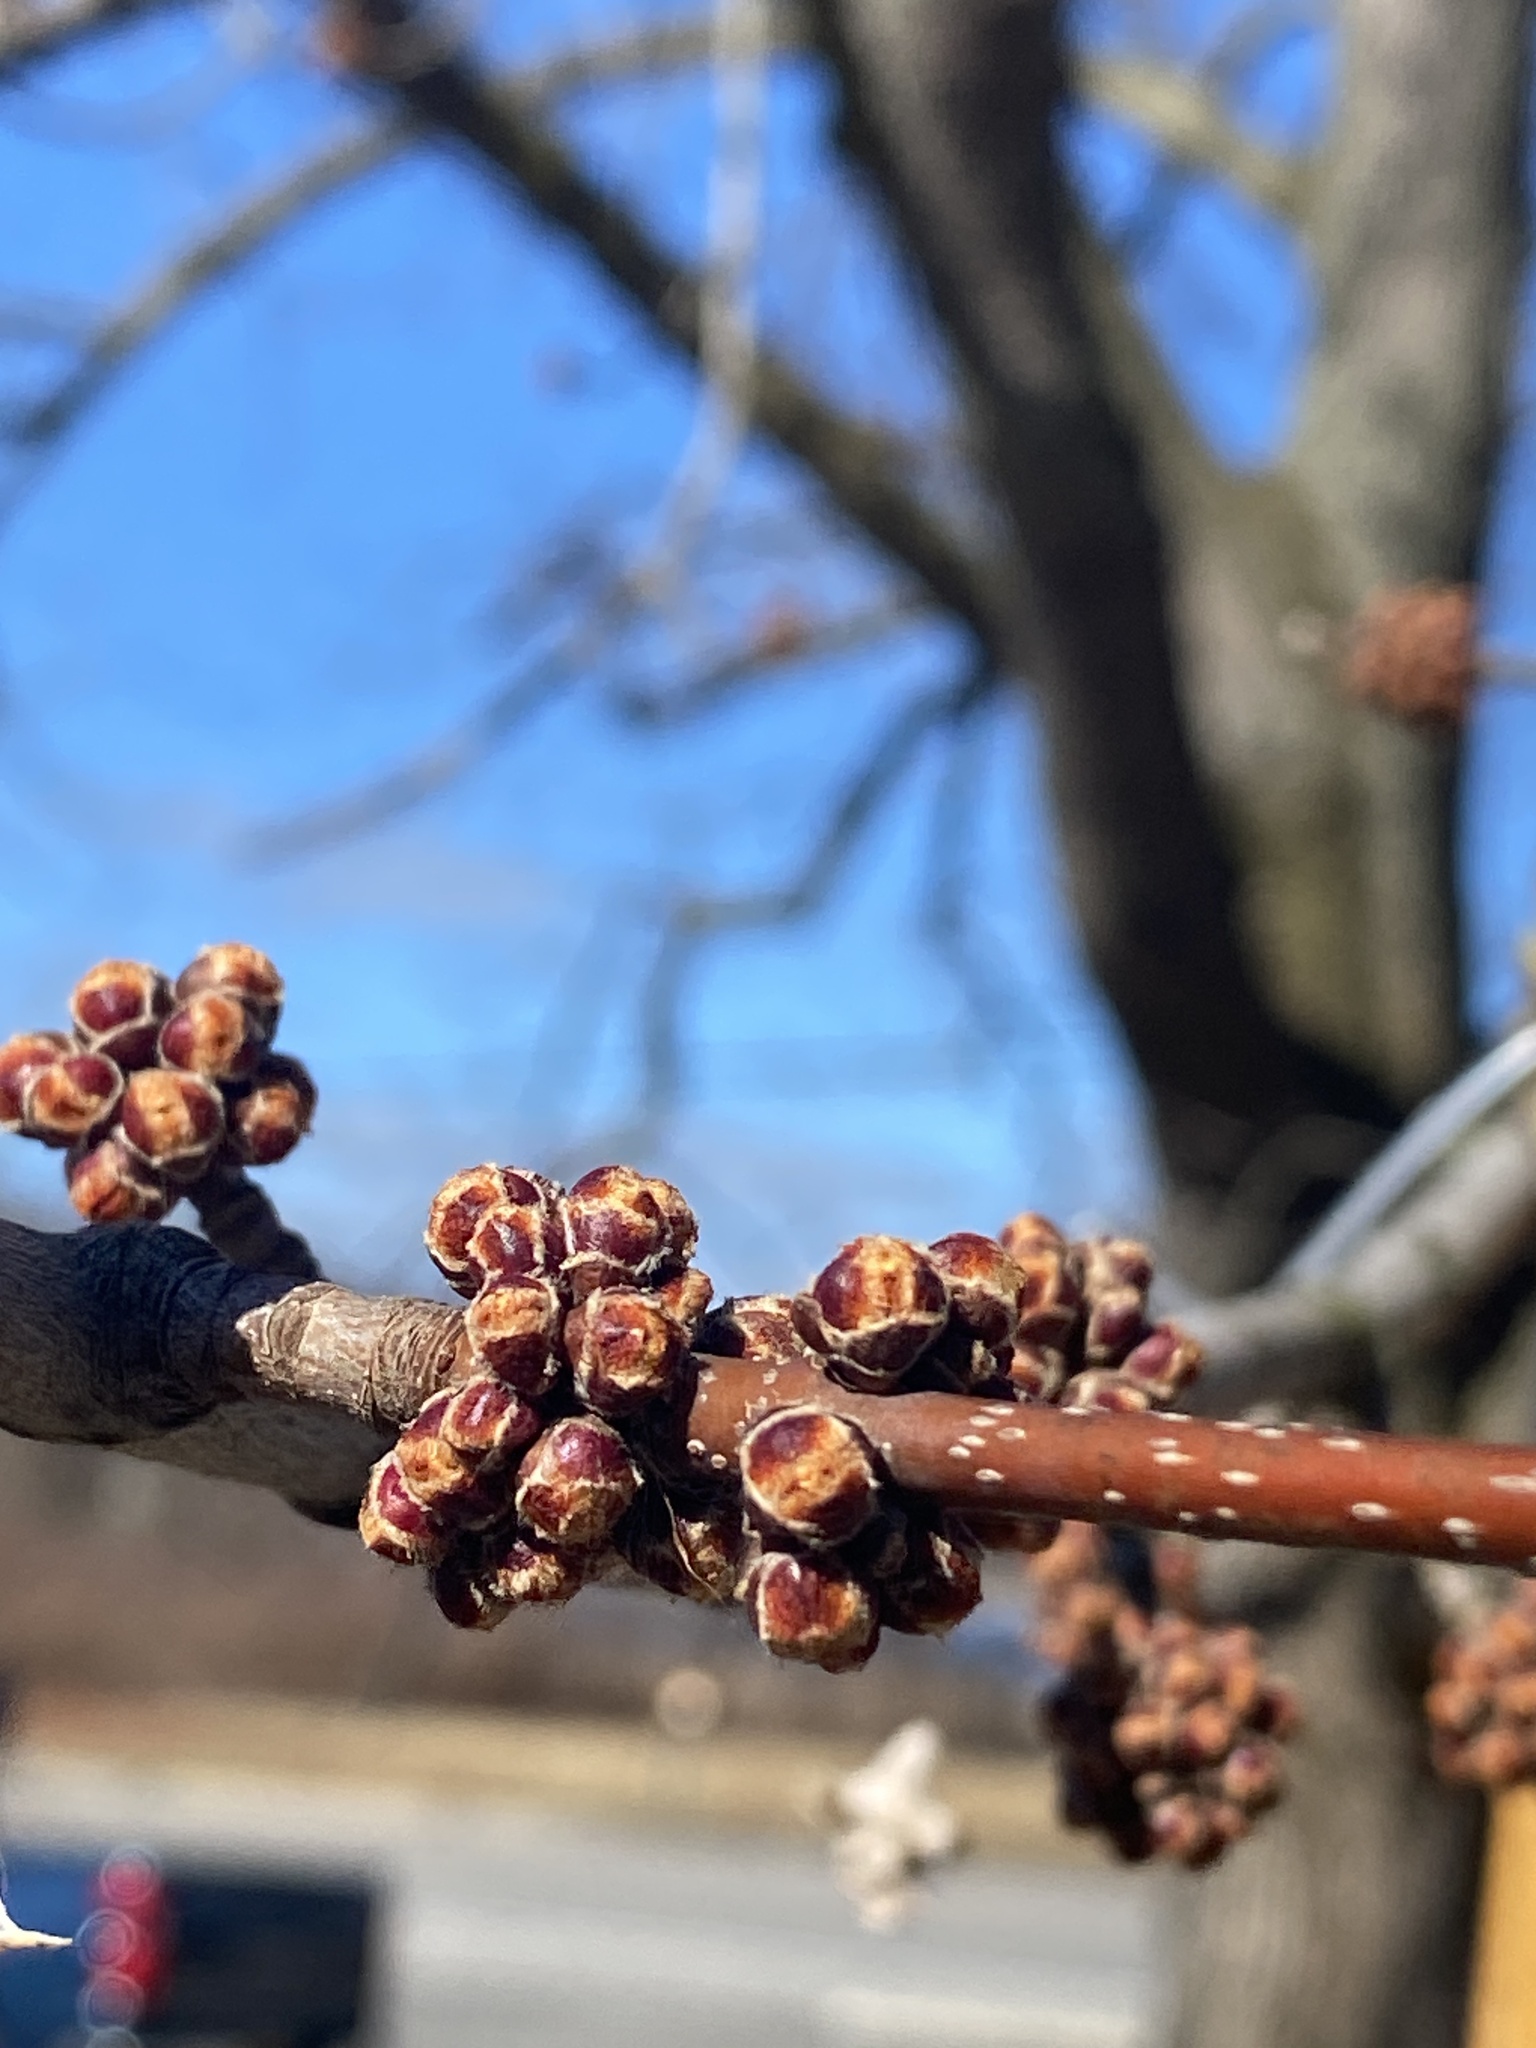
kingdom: Plantae
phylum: Tracheophyta
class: Magnoliopsida
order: Sapindales
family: Sapindaceae
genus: Acer
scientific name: Acer saccharinum
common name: Silver maple
